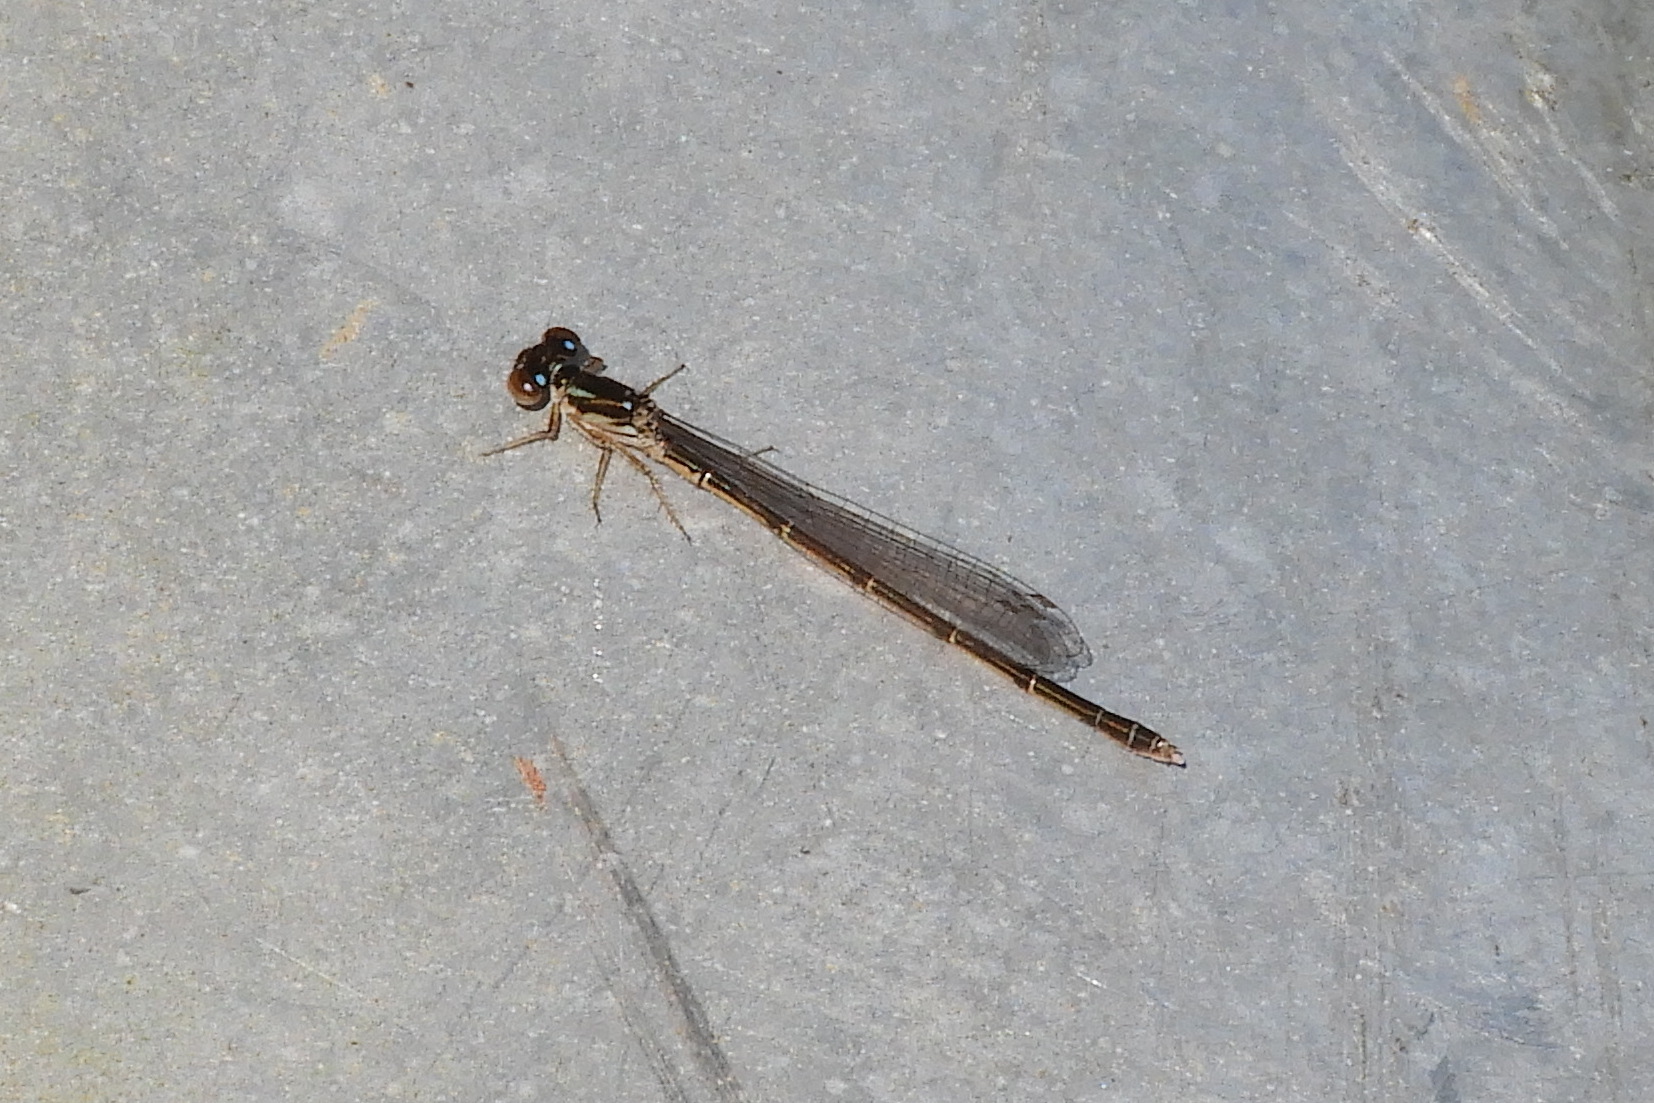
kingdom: Animalia
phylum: Arthropoda
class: Insecta
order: Odonata
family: Coenagrionidae
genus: Ischnura
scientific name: Ischnura posita
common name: Fragile forktail
